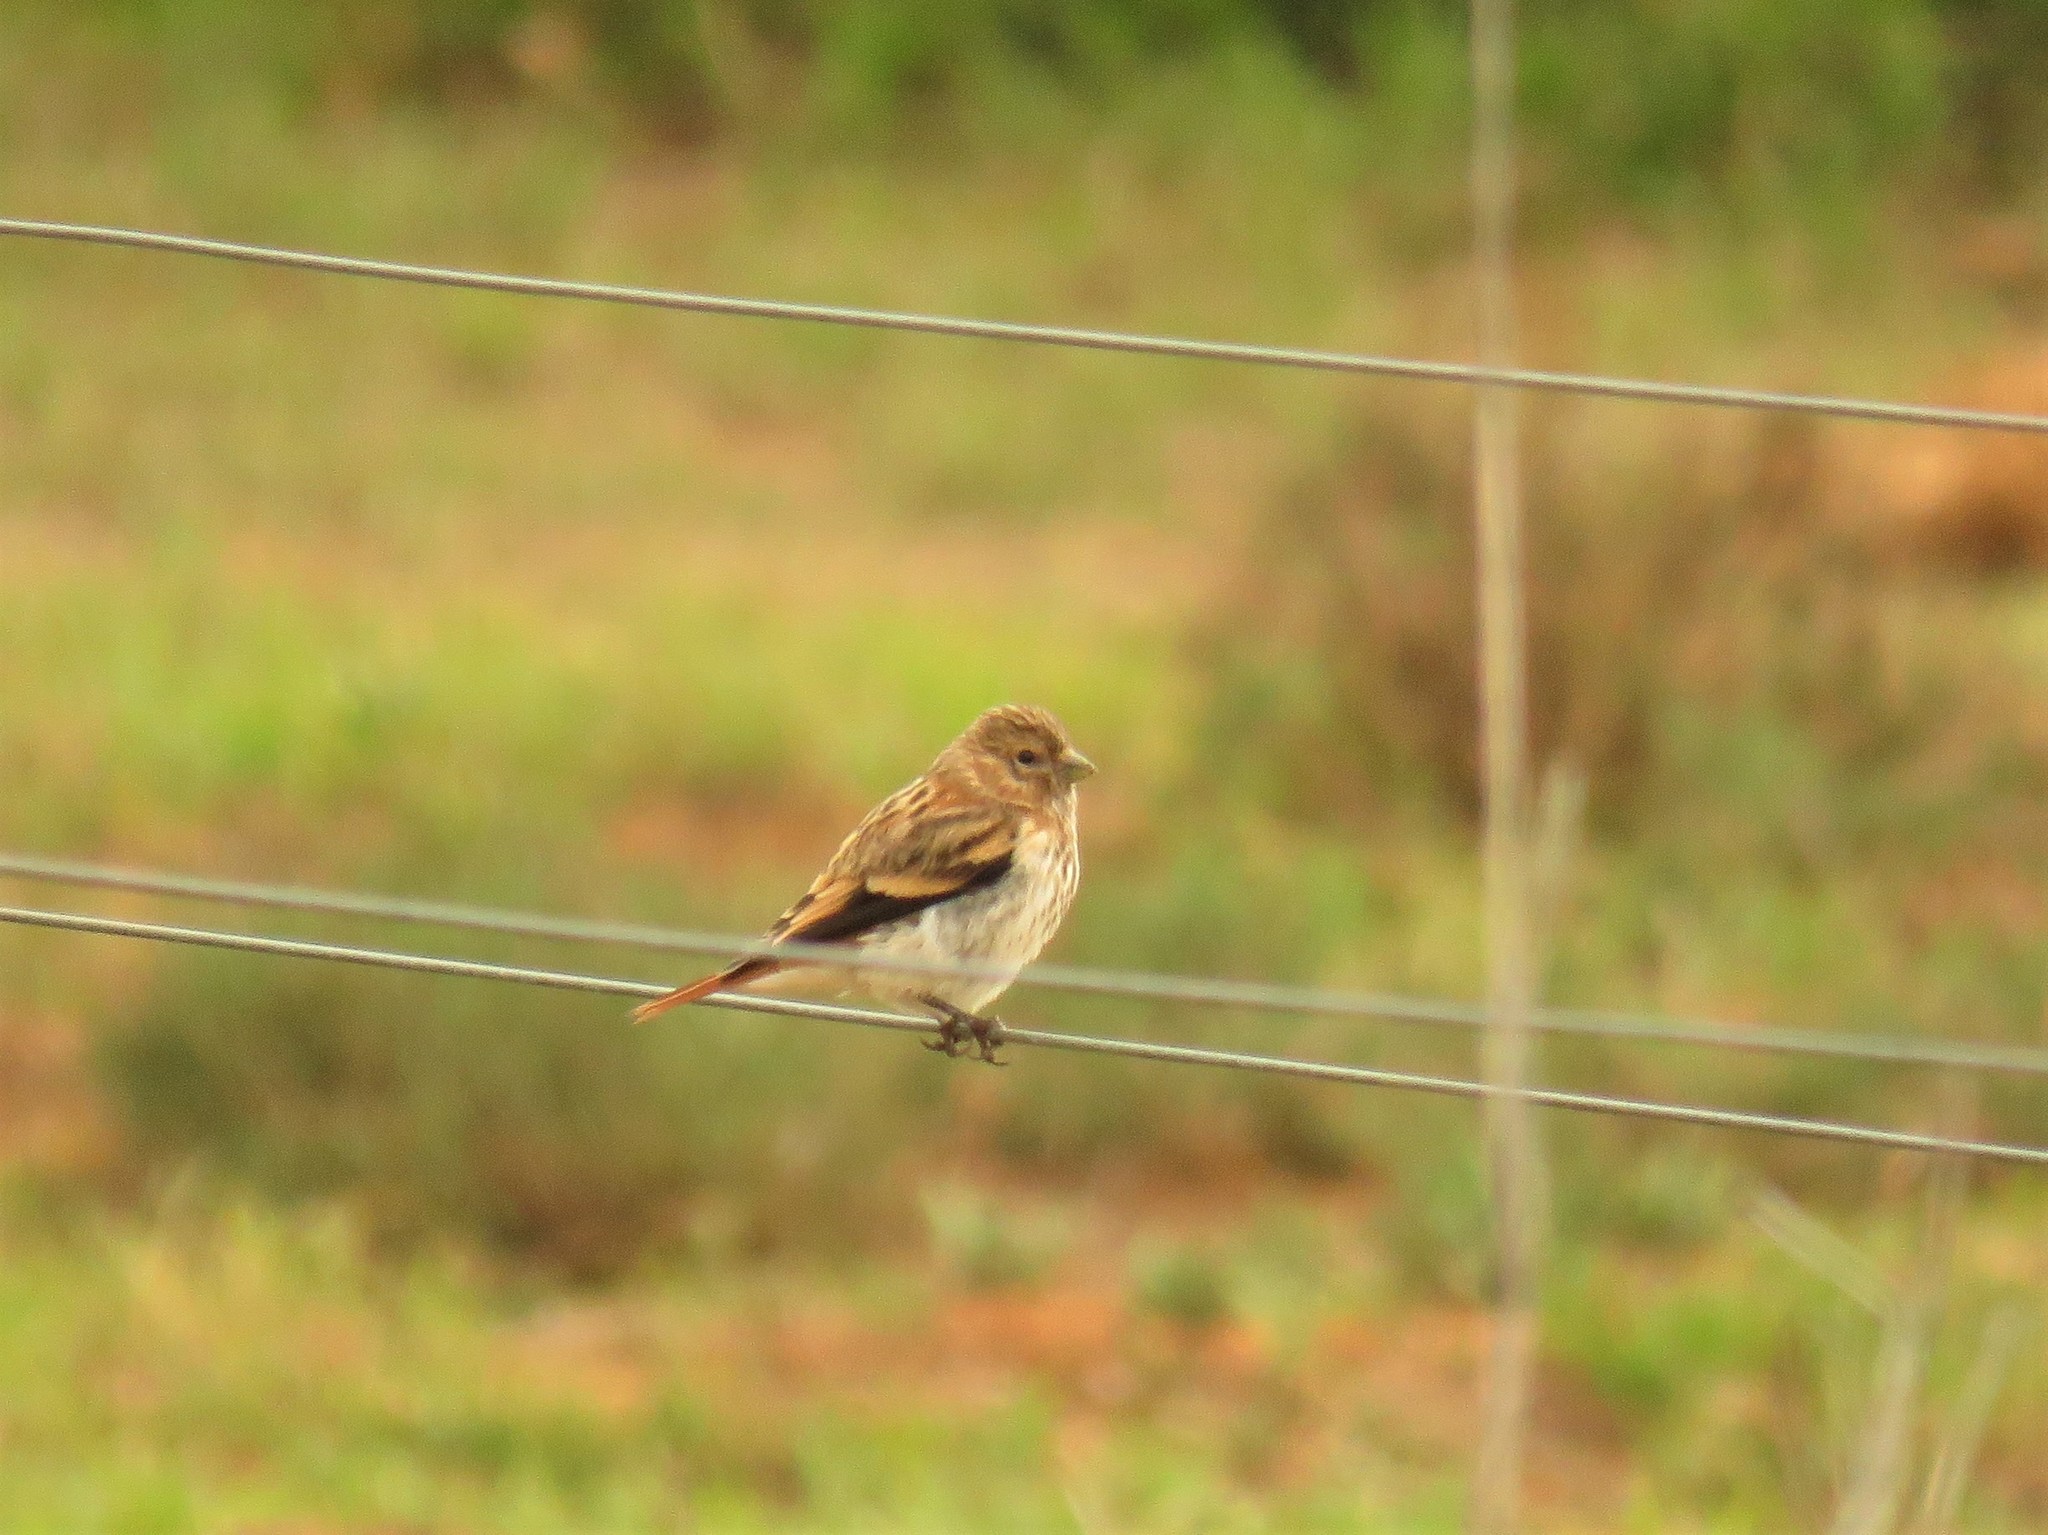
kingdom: Animalia
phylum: Chordata
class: Aves
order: Passeriformes
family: Fringillidae
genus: Serinus
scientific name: Serinus alario
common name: Black-headed canary
